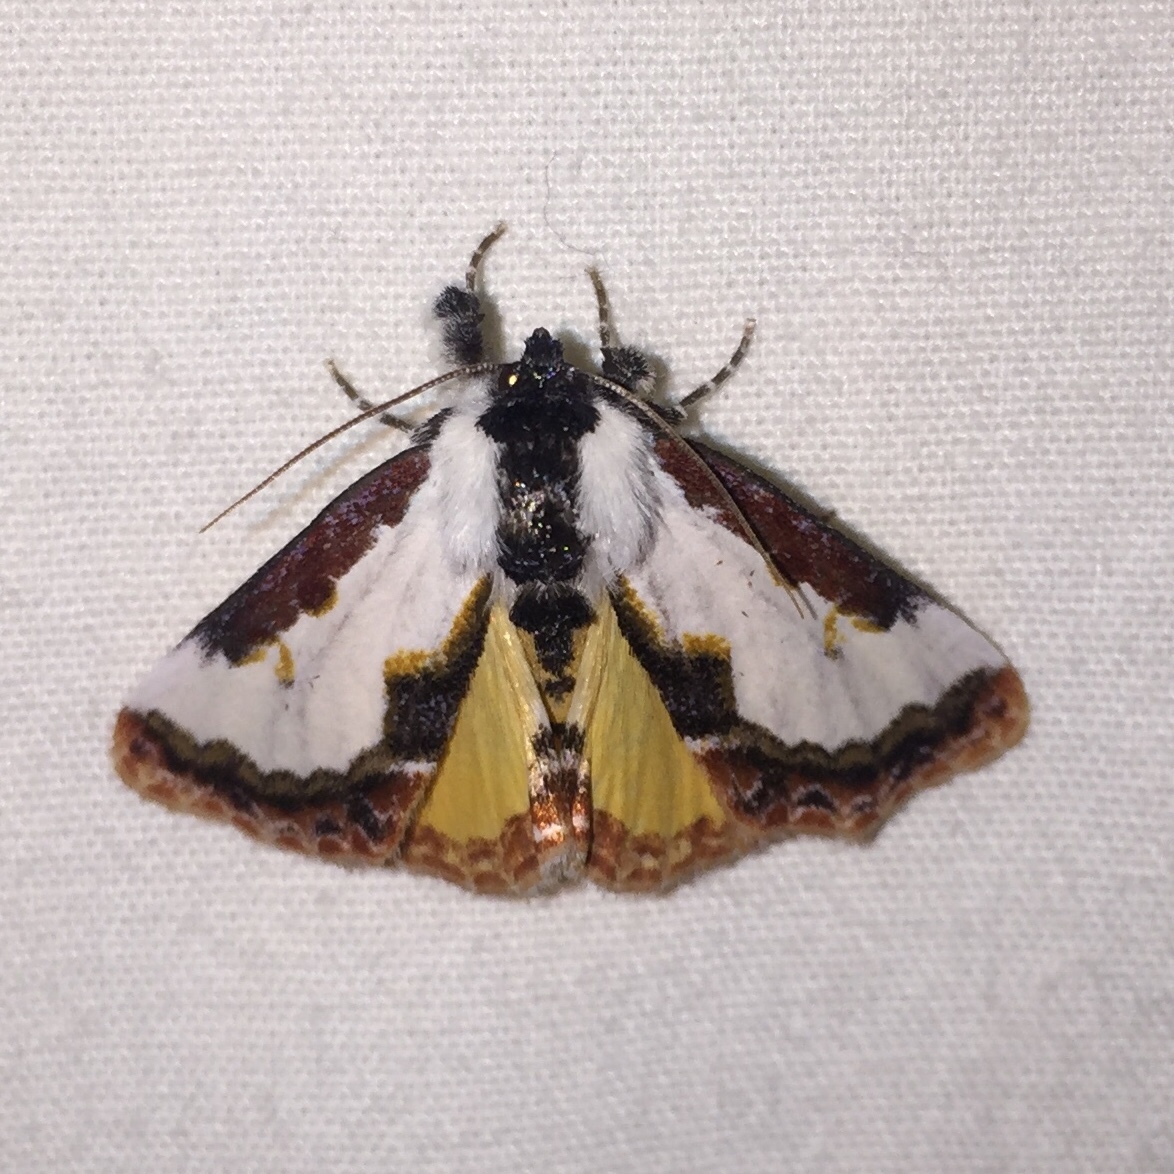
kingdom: Animalia
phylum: Arthropoda
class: Insecta
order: Lepidoptera
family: Noctuidae
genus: Eudryas
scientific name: Eudryas unio
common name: Pearly wood-nymph
